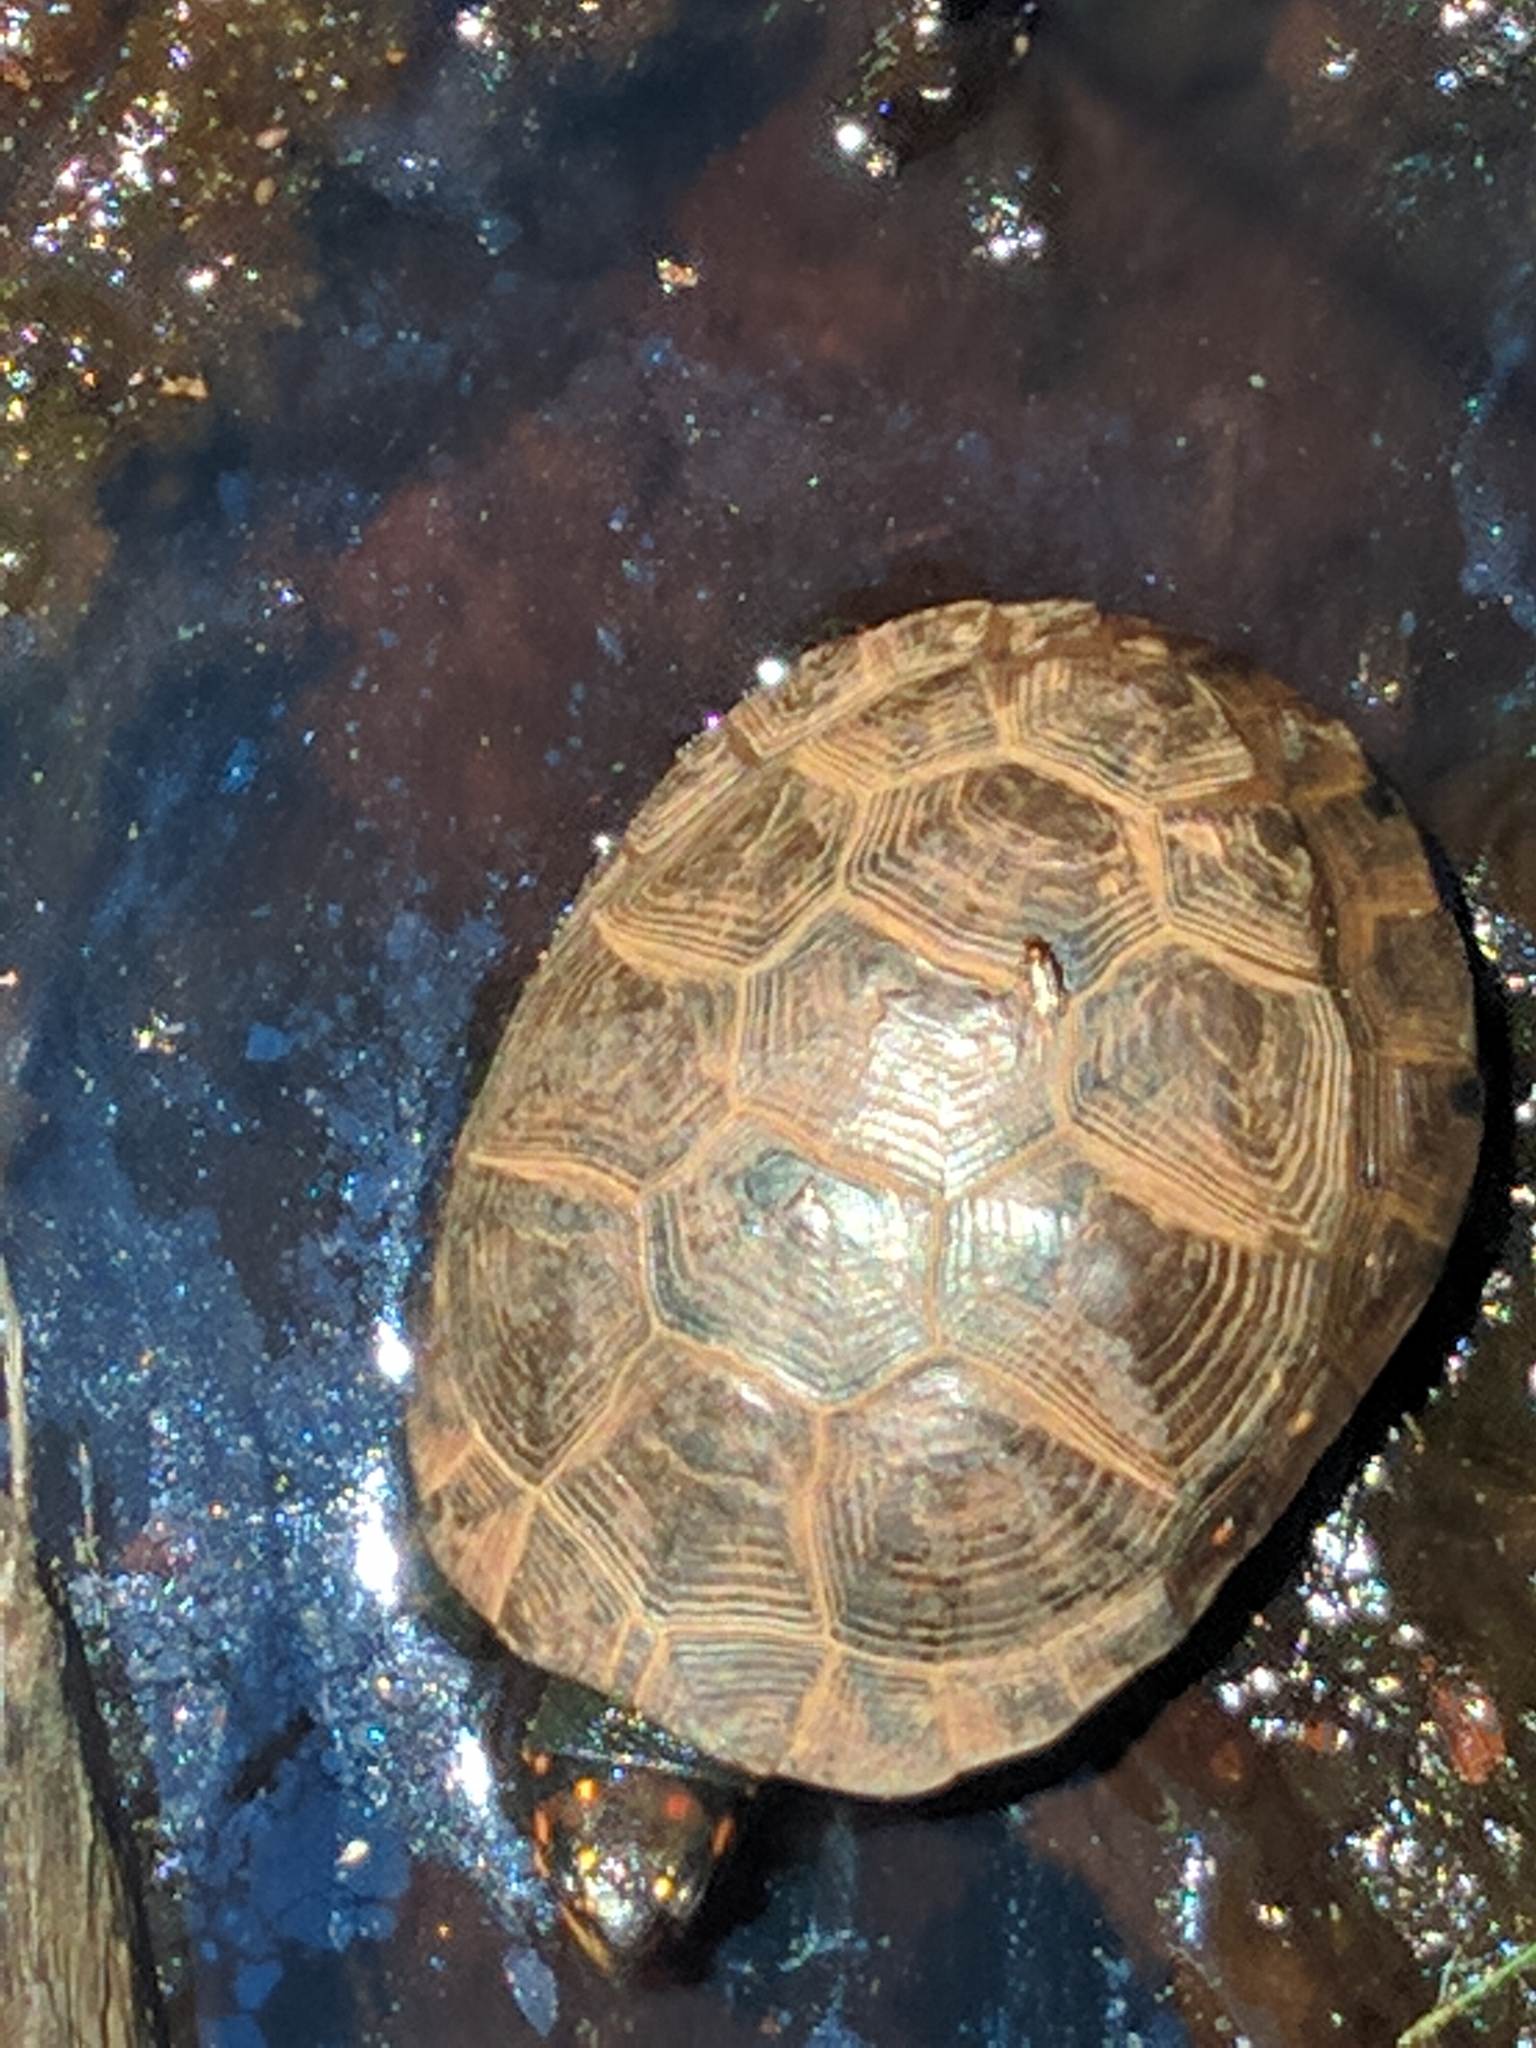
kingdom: Animalia
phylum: Chordata
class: Testudines
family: Emydidae
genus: Clemmys
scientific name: Clemmys guttata
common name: Spotted turtle
